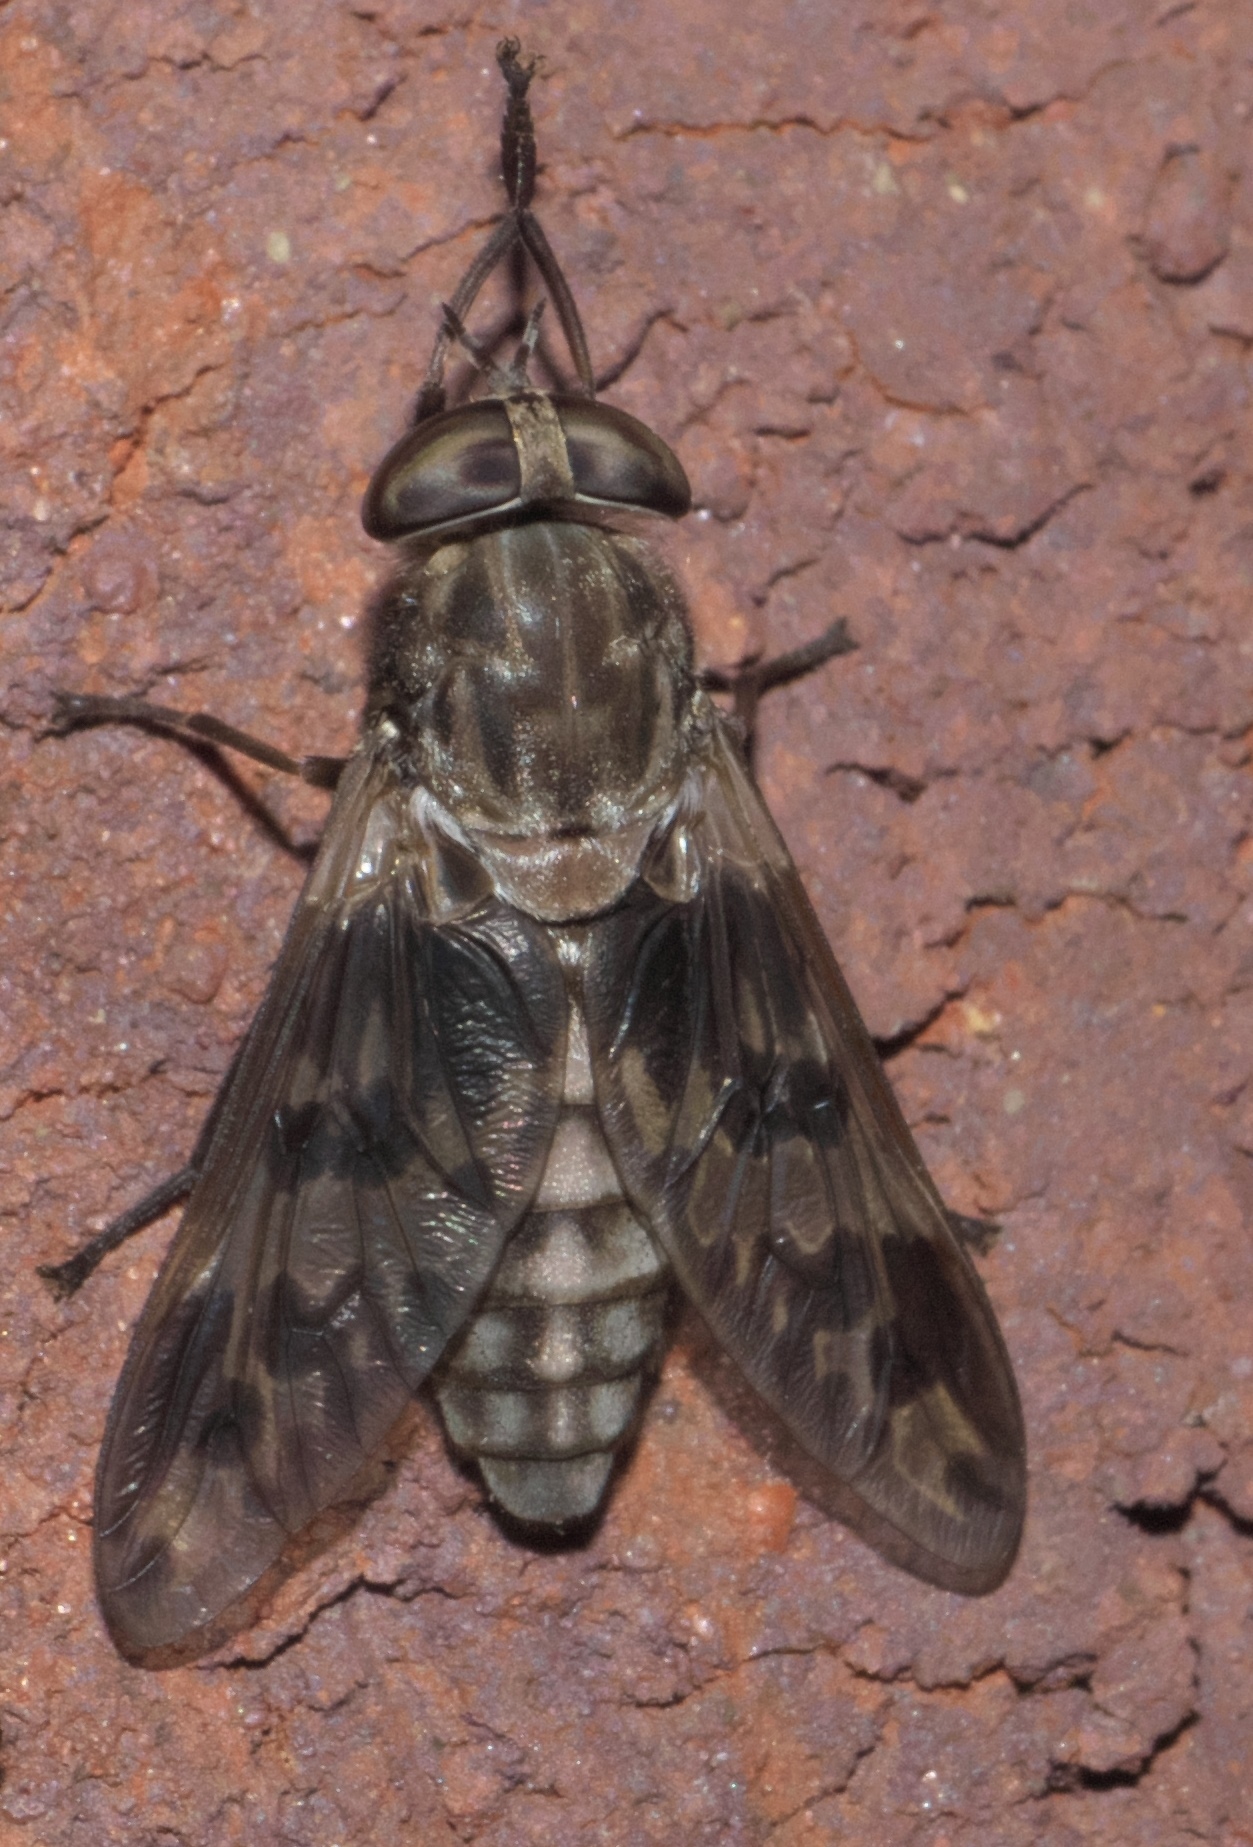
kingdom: Animalia
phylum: Arthropoda
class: Insecta
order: Diptera
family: Tabanidae
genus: Tabanus
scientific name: Tabanus venustus
